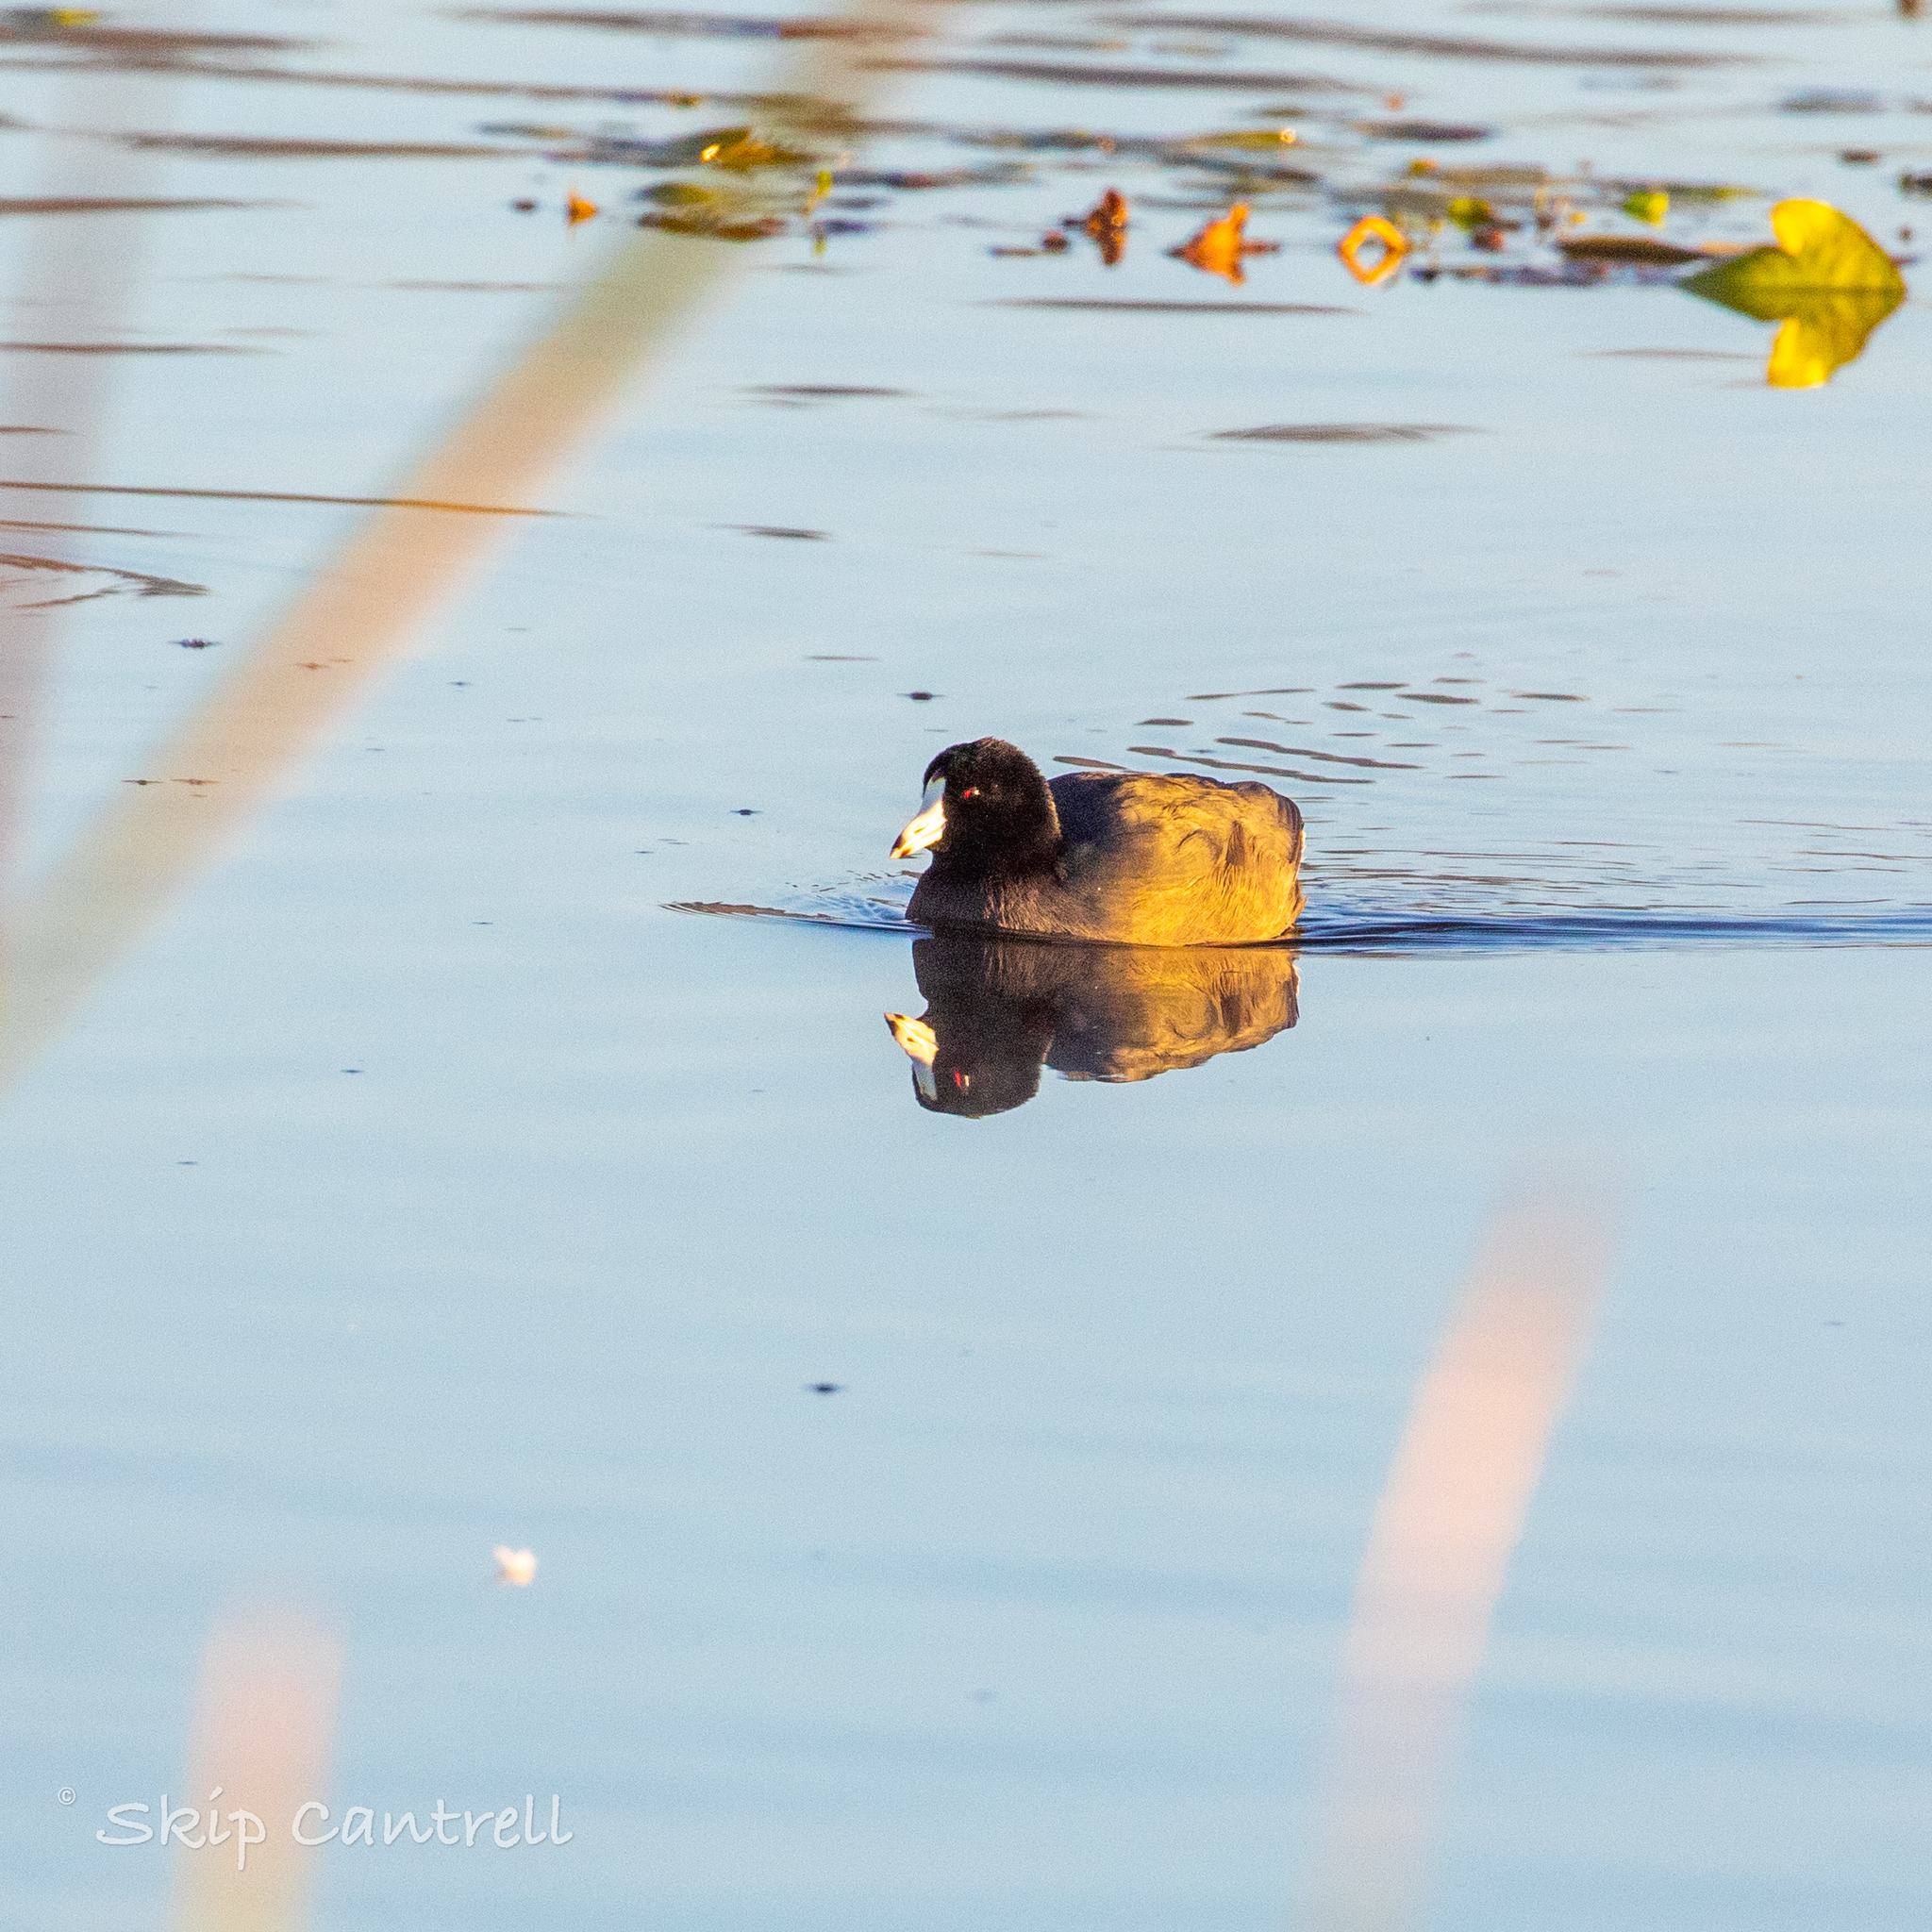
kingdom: Animalia
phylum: Chordata
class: Aves
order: Gruiformes
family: Rallidae
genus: Fulica
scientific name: Fulica americana
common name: American coot
